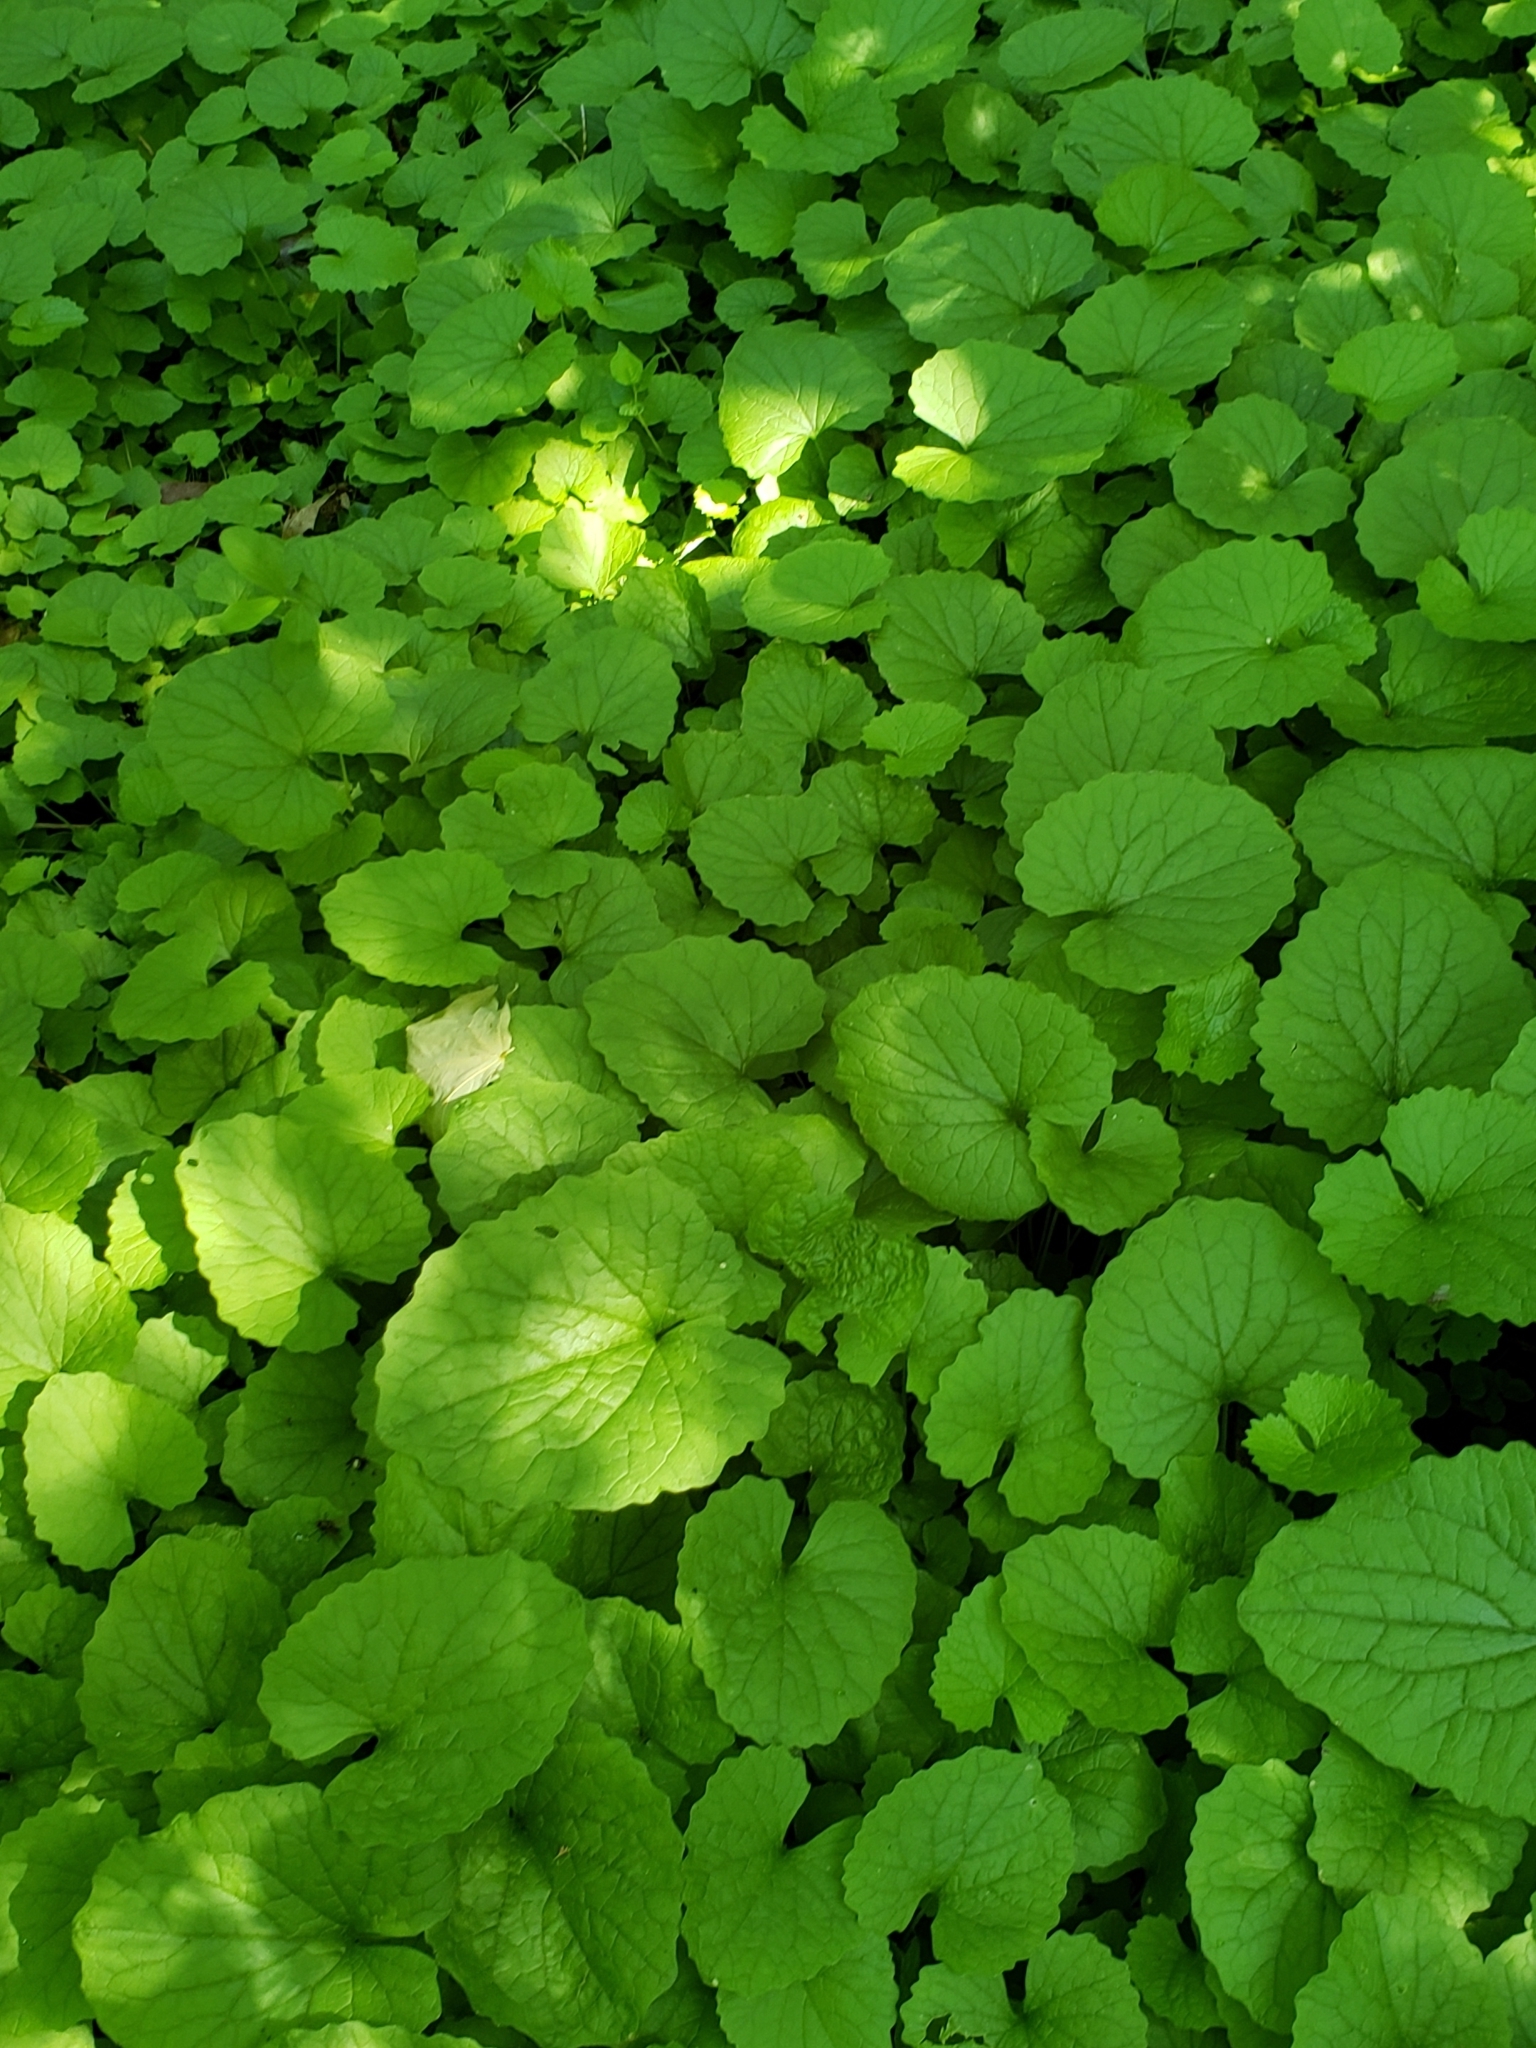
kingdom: Plantae
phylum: Tracheophyta
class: Magnoliopsida
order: Brassicales
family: Brassicaceae
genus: Alliaria
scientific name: Alliaria petiolata
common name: Garlic mustard
